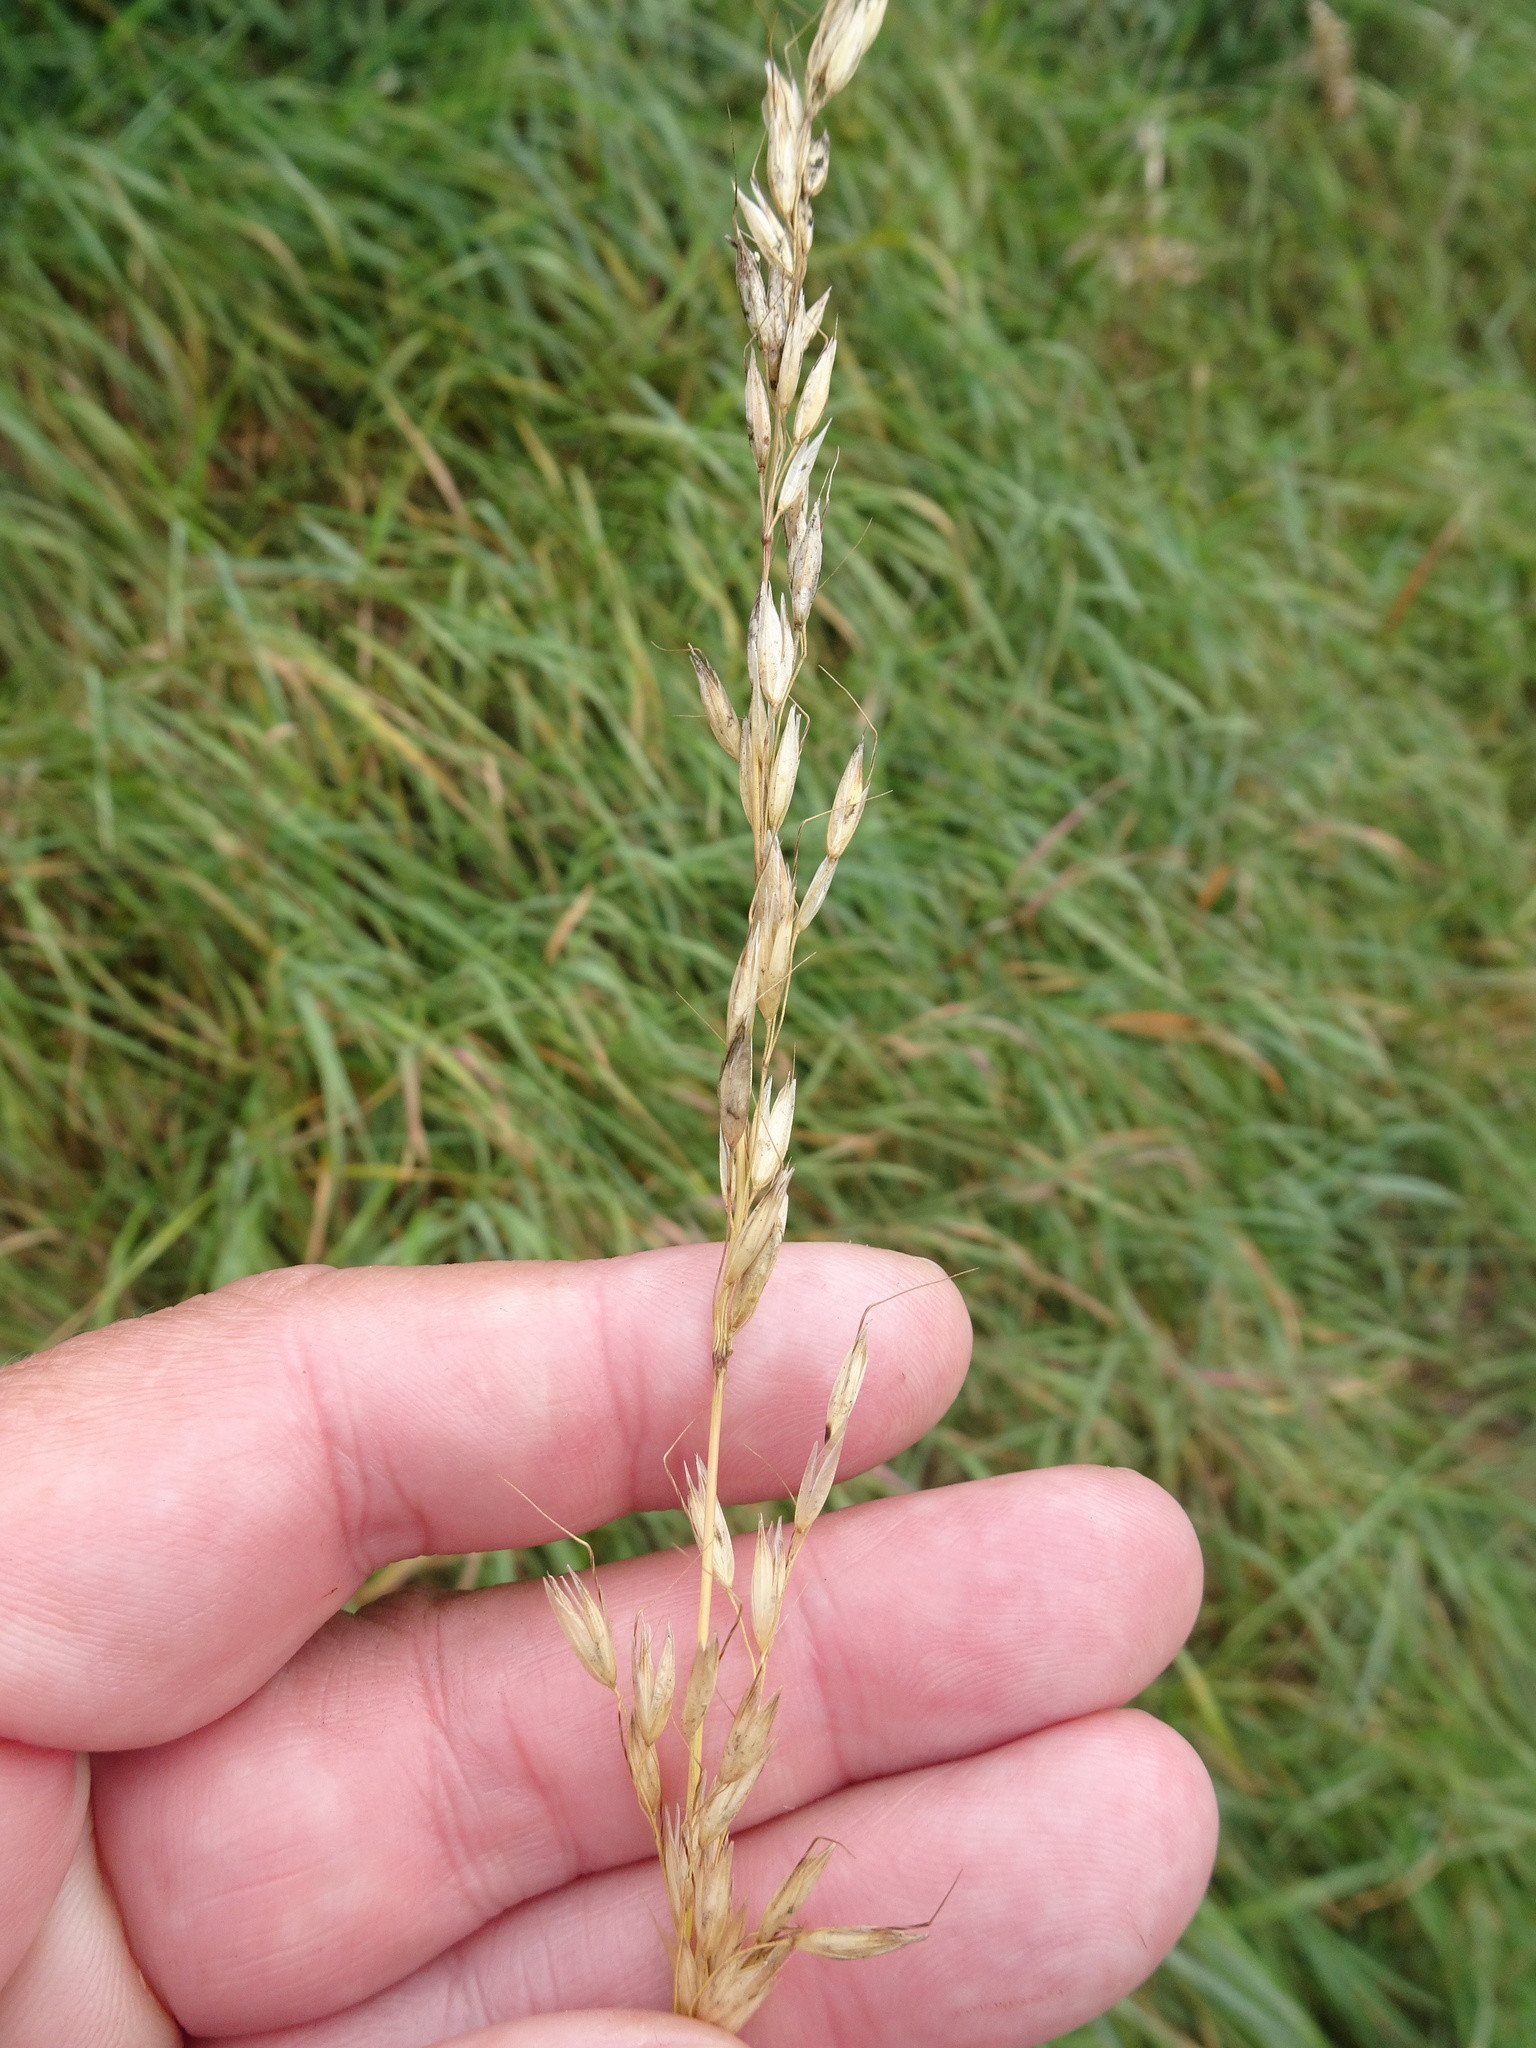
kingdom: Plantae
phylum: Tracheophyta
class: Liliopsida
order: Poales
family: Poaceae
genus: Arrhenatherum
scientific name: Arrhenatherum elatius
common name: Tall oatgrass
